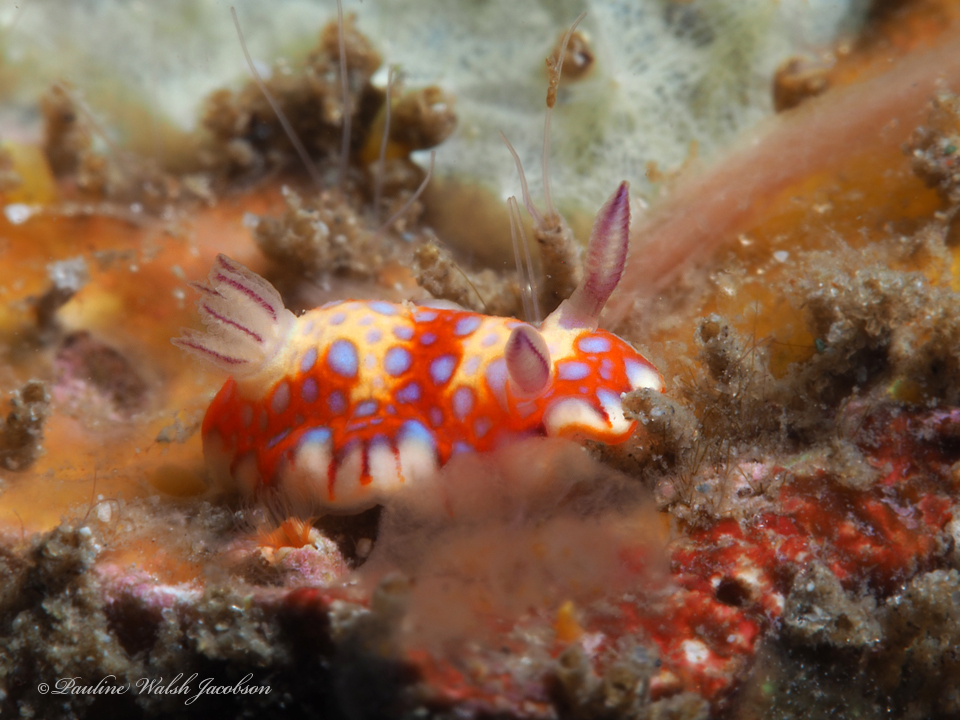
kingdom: Animalia
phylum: Mollusca
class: Gastropoda
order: Nudibranchia
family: Chromodorididae
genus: Felimida
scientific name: Felimida binza
